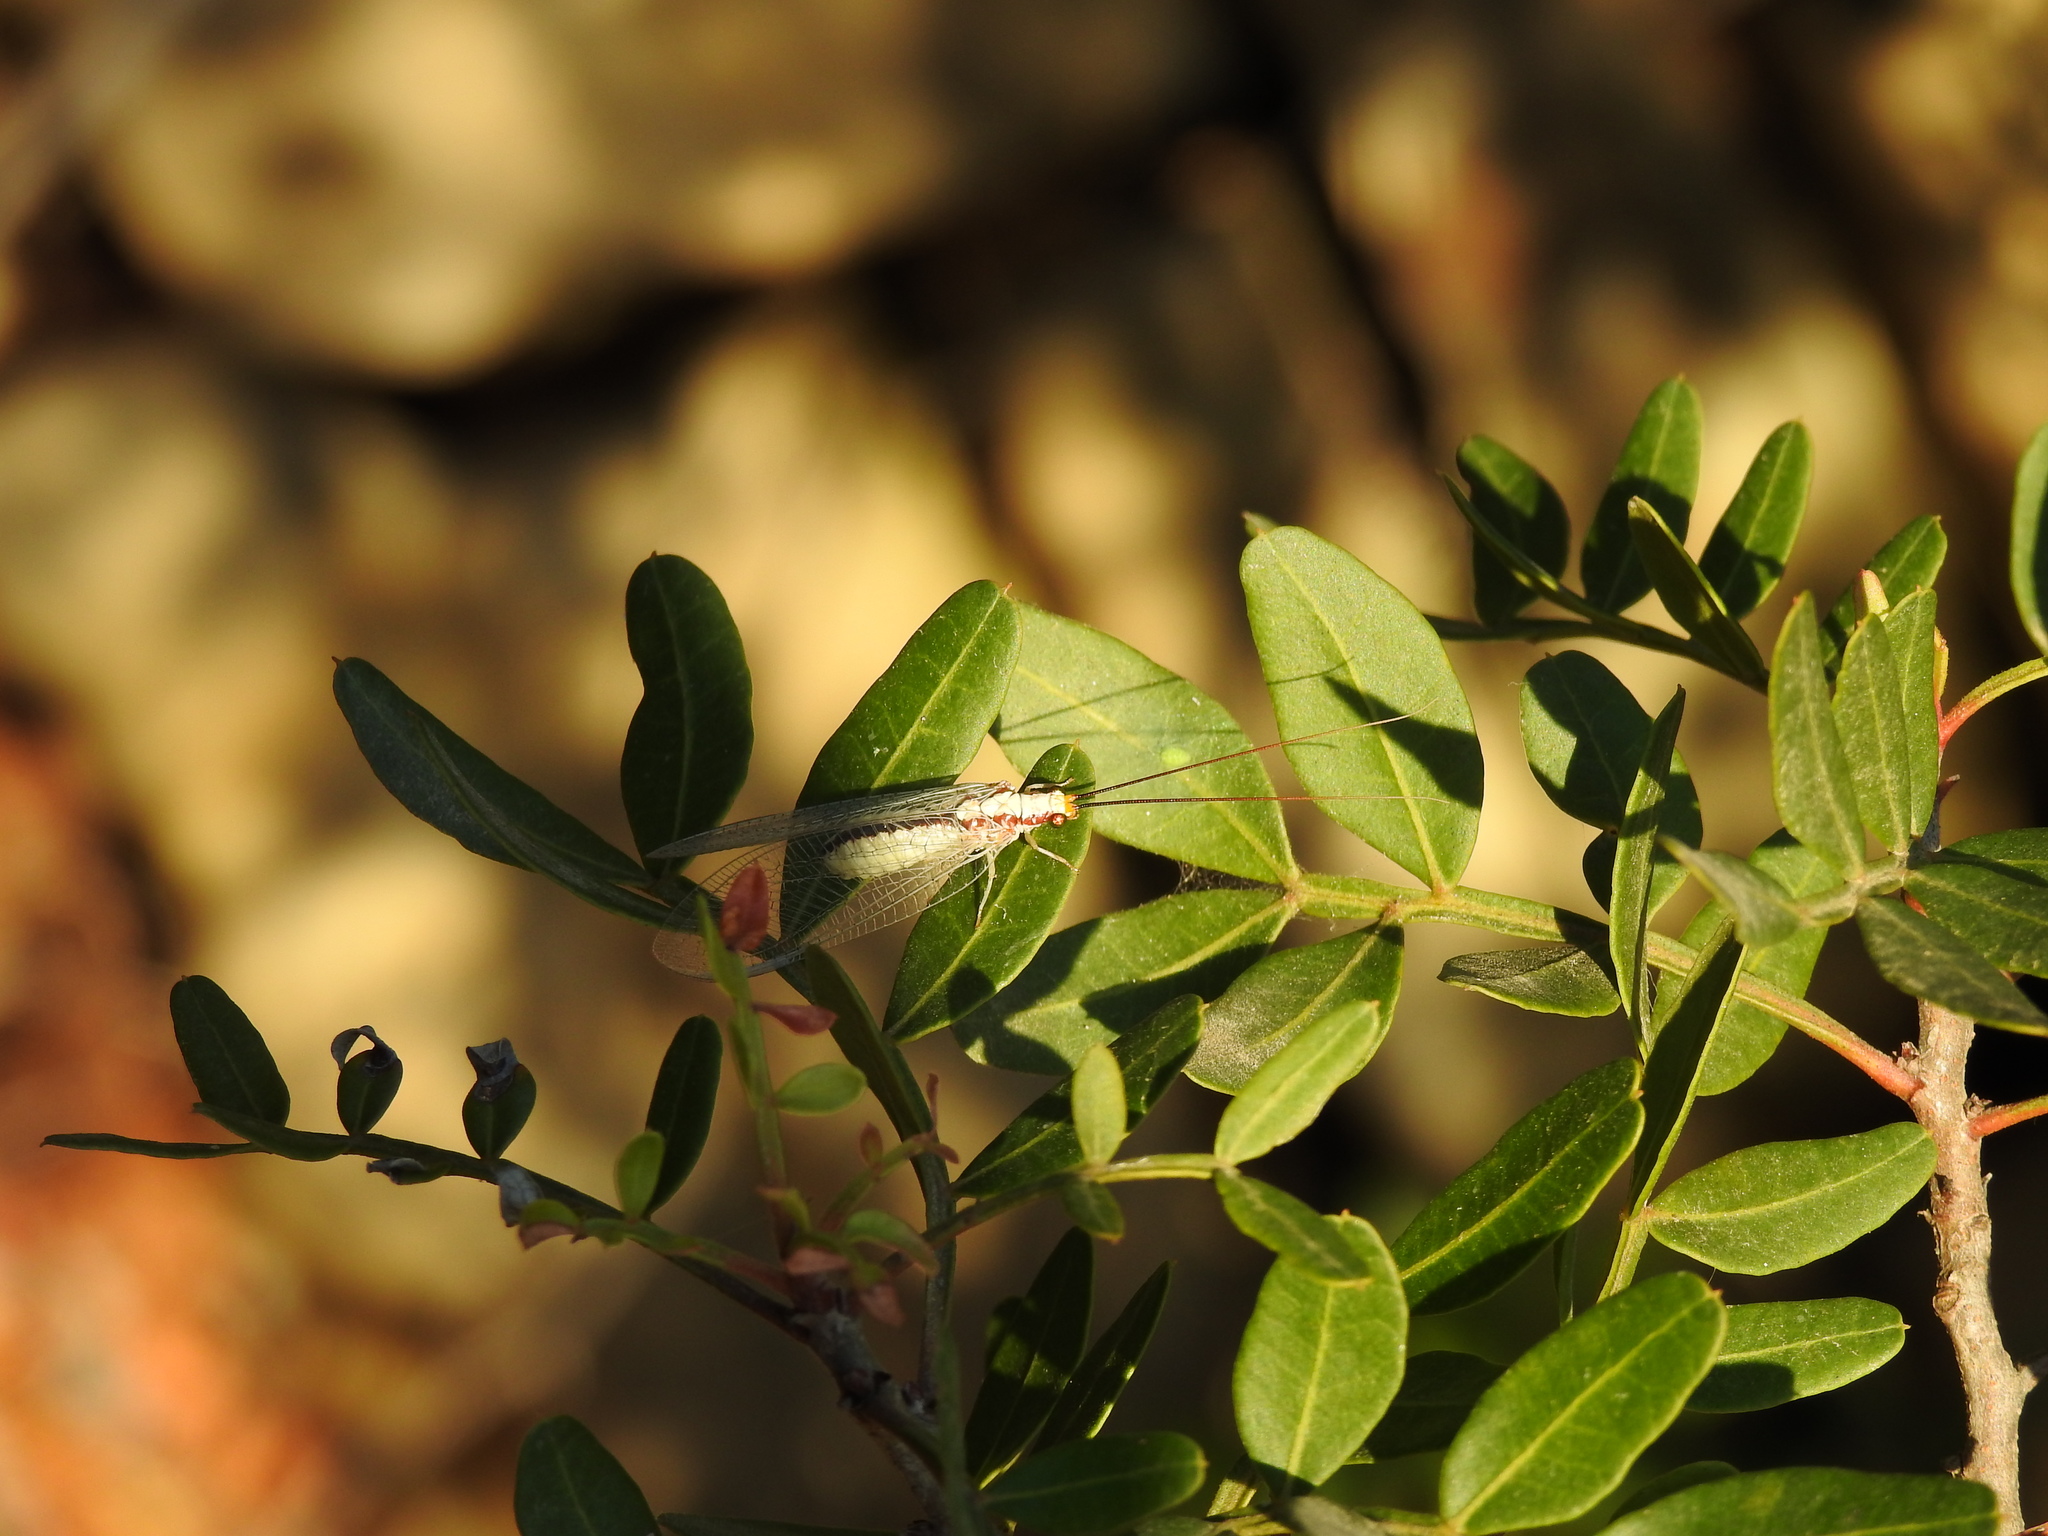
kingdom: Animalia
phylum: Arthropoda
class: Insecta
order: Neuroptera
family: Chrysopidae
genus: Italochrysa
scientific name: Italochrysa italica
